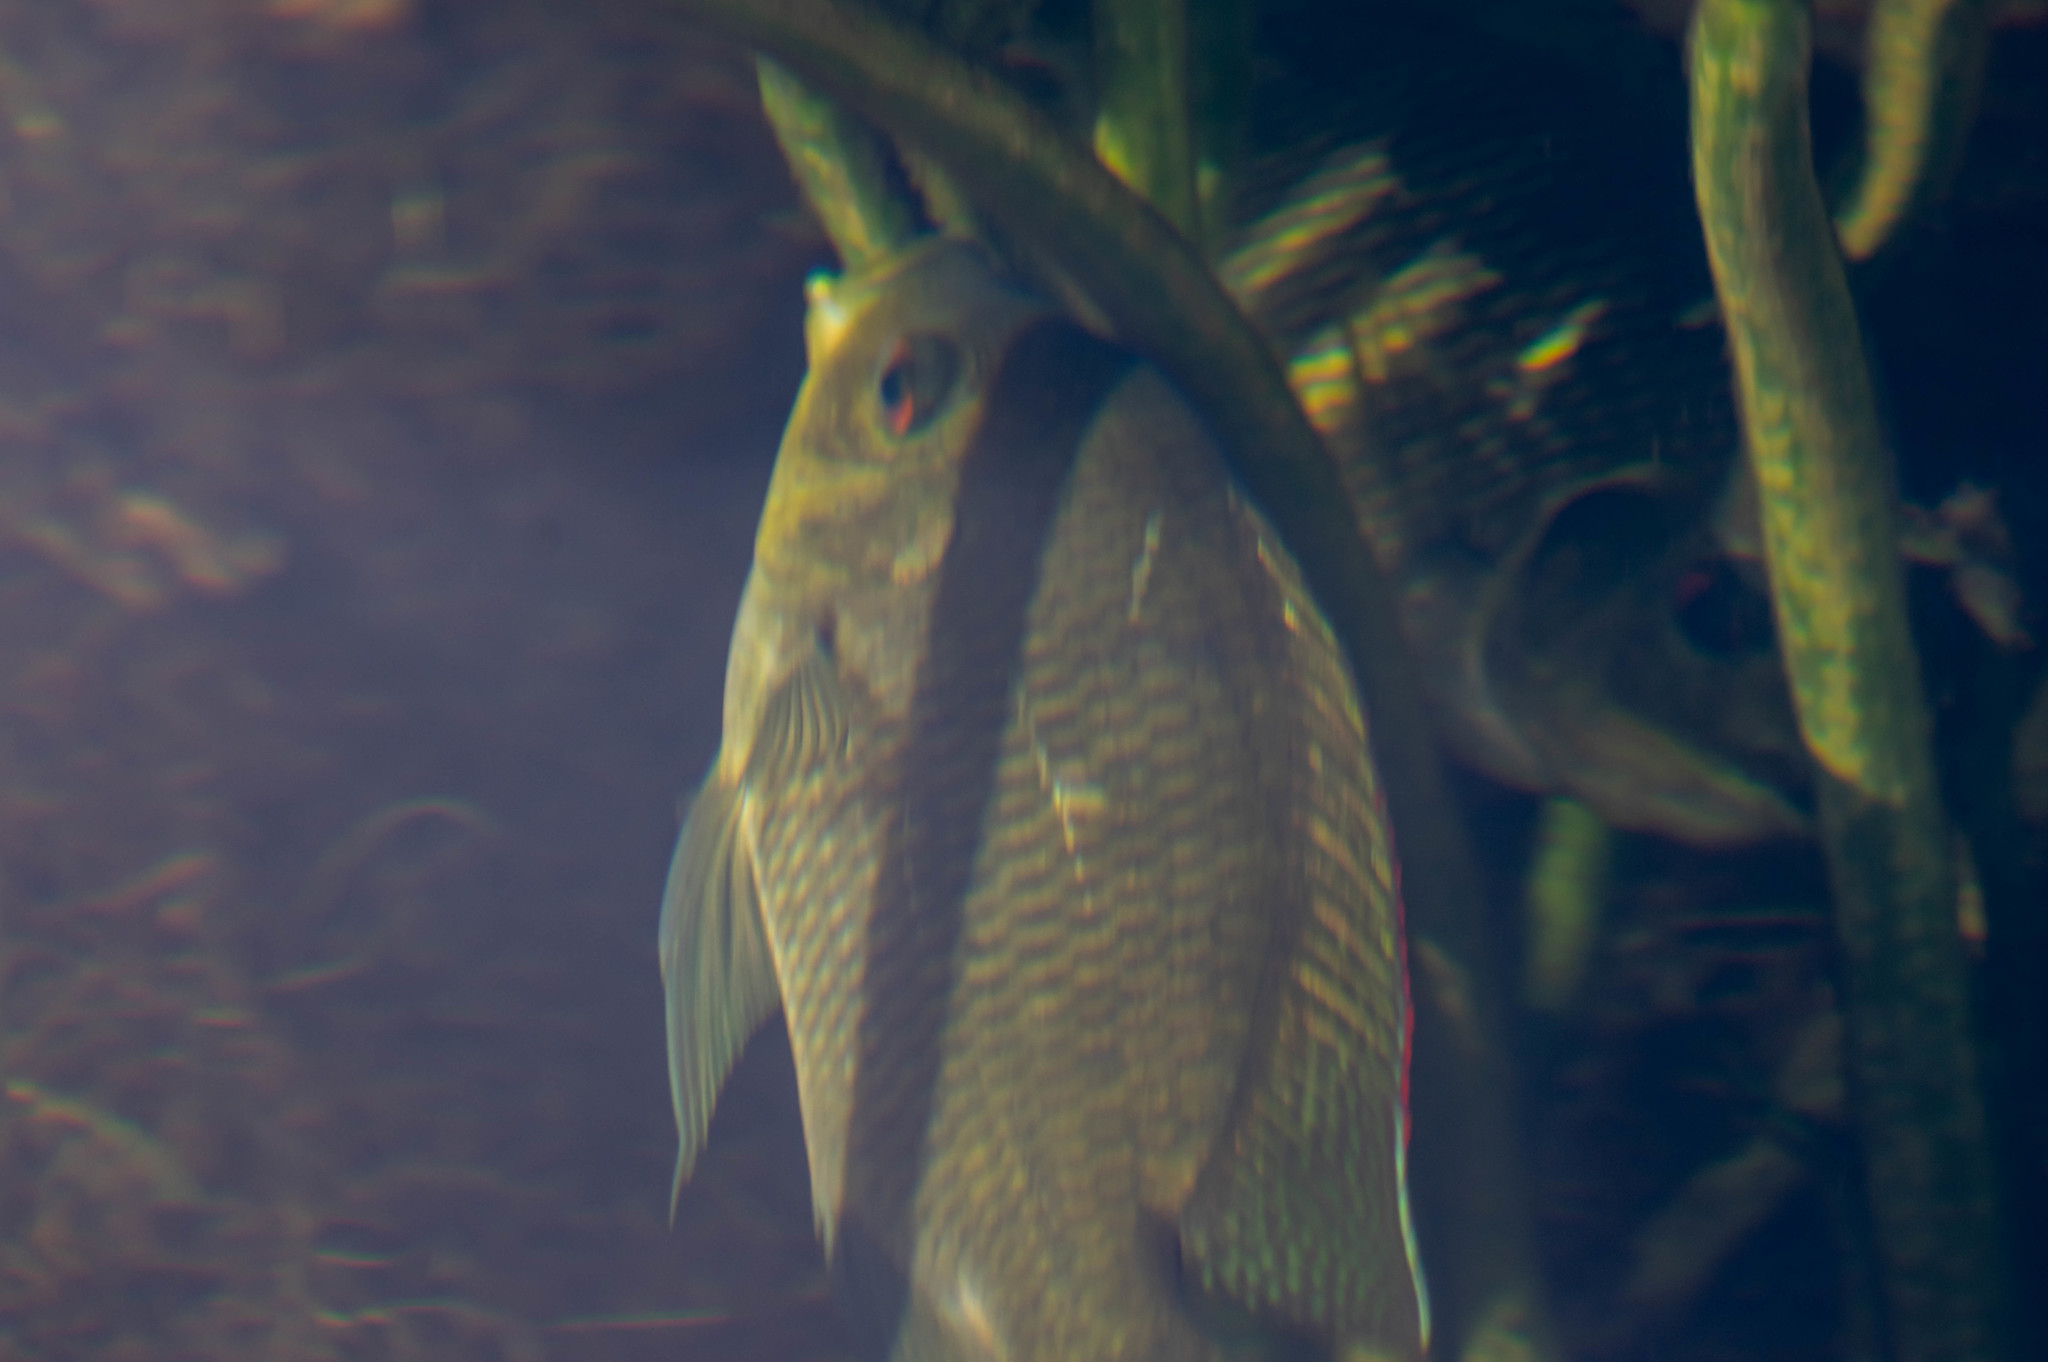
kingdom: Animalia
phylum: Chordata
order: Perciformes
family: Cichlidae
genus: Pelmatolapia
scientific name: Pelmatolapia mariae
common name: Spotted tilapia
